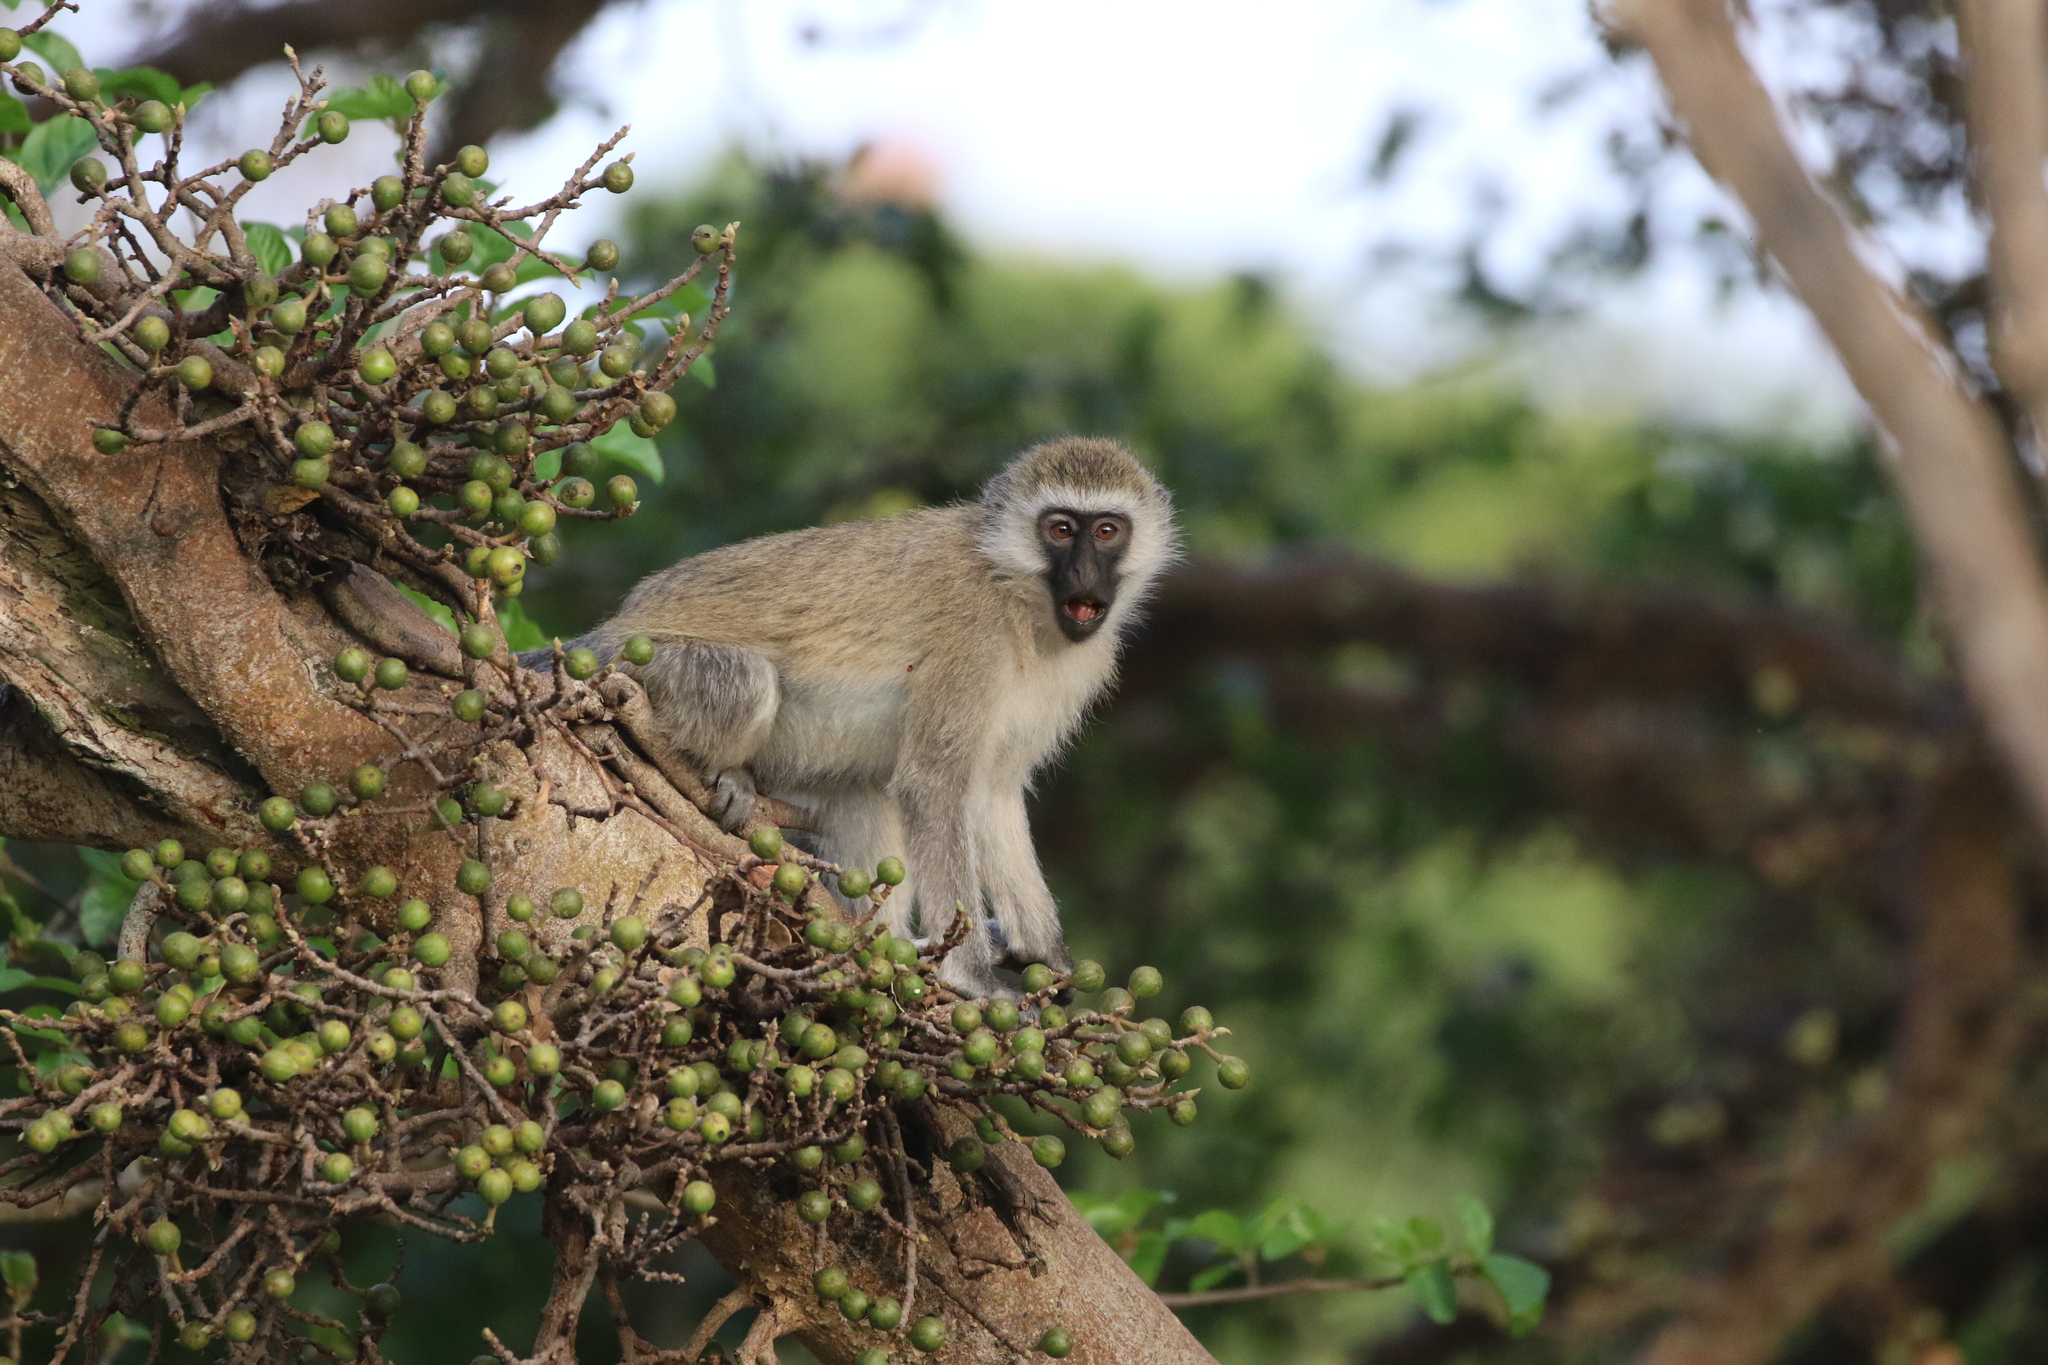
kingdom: Animalia
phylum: Chordata
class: Mammalia
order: Primates
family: Cercopithecidae
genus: Chlorocebus
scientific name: Chlorocebus pygerythrus
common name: Vervet monkey
